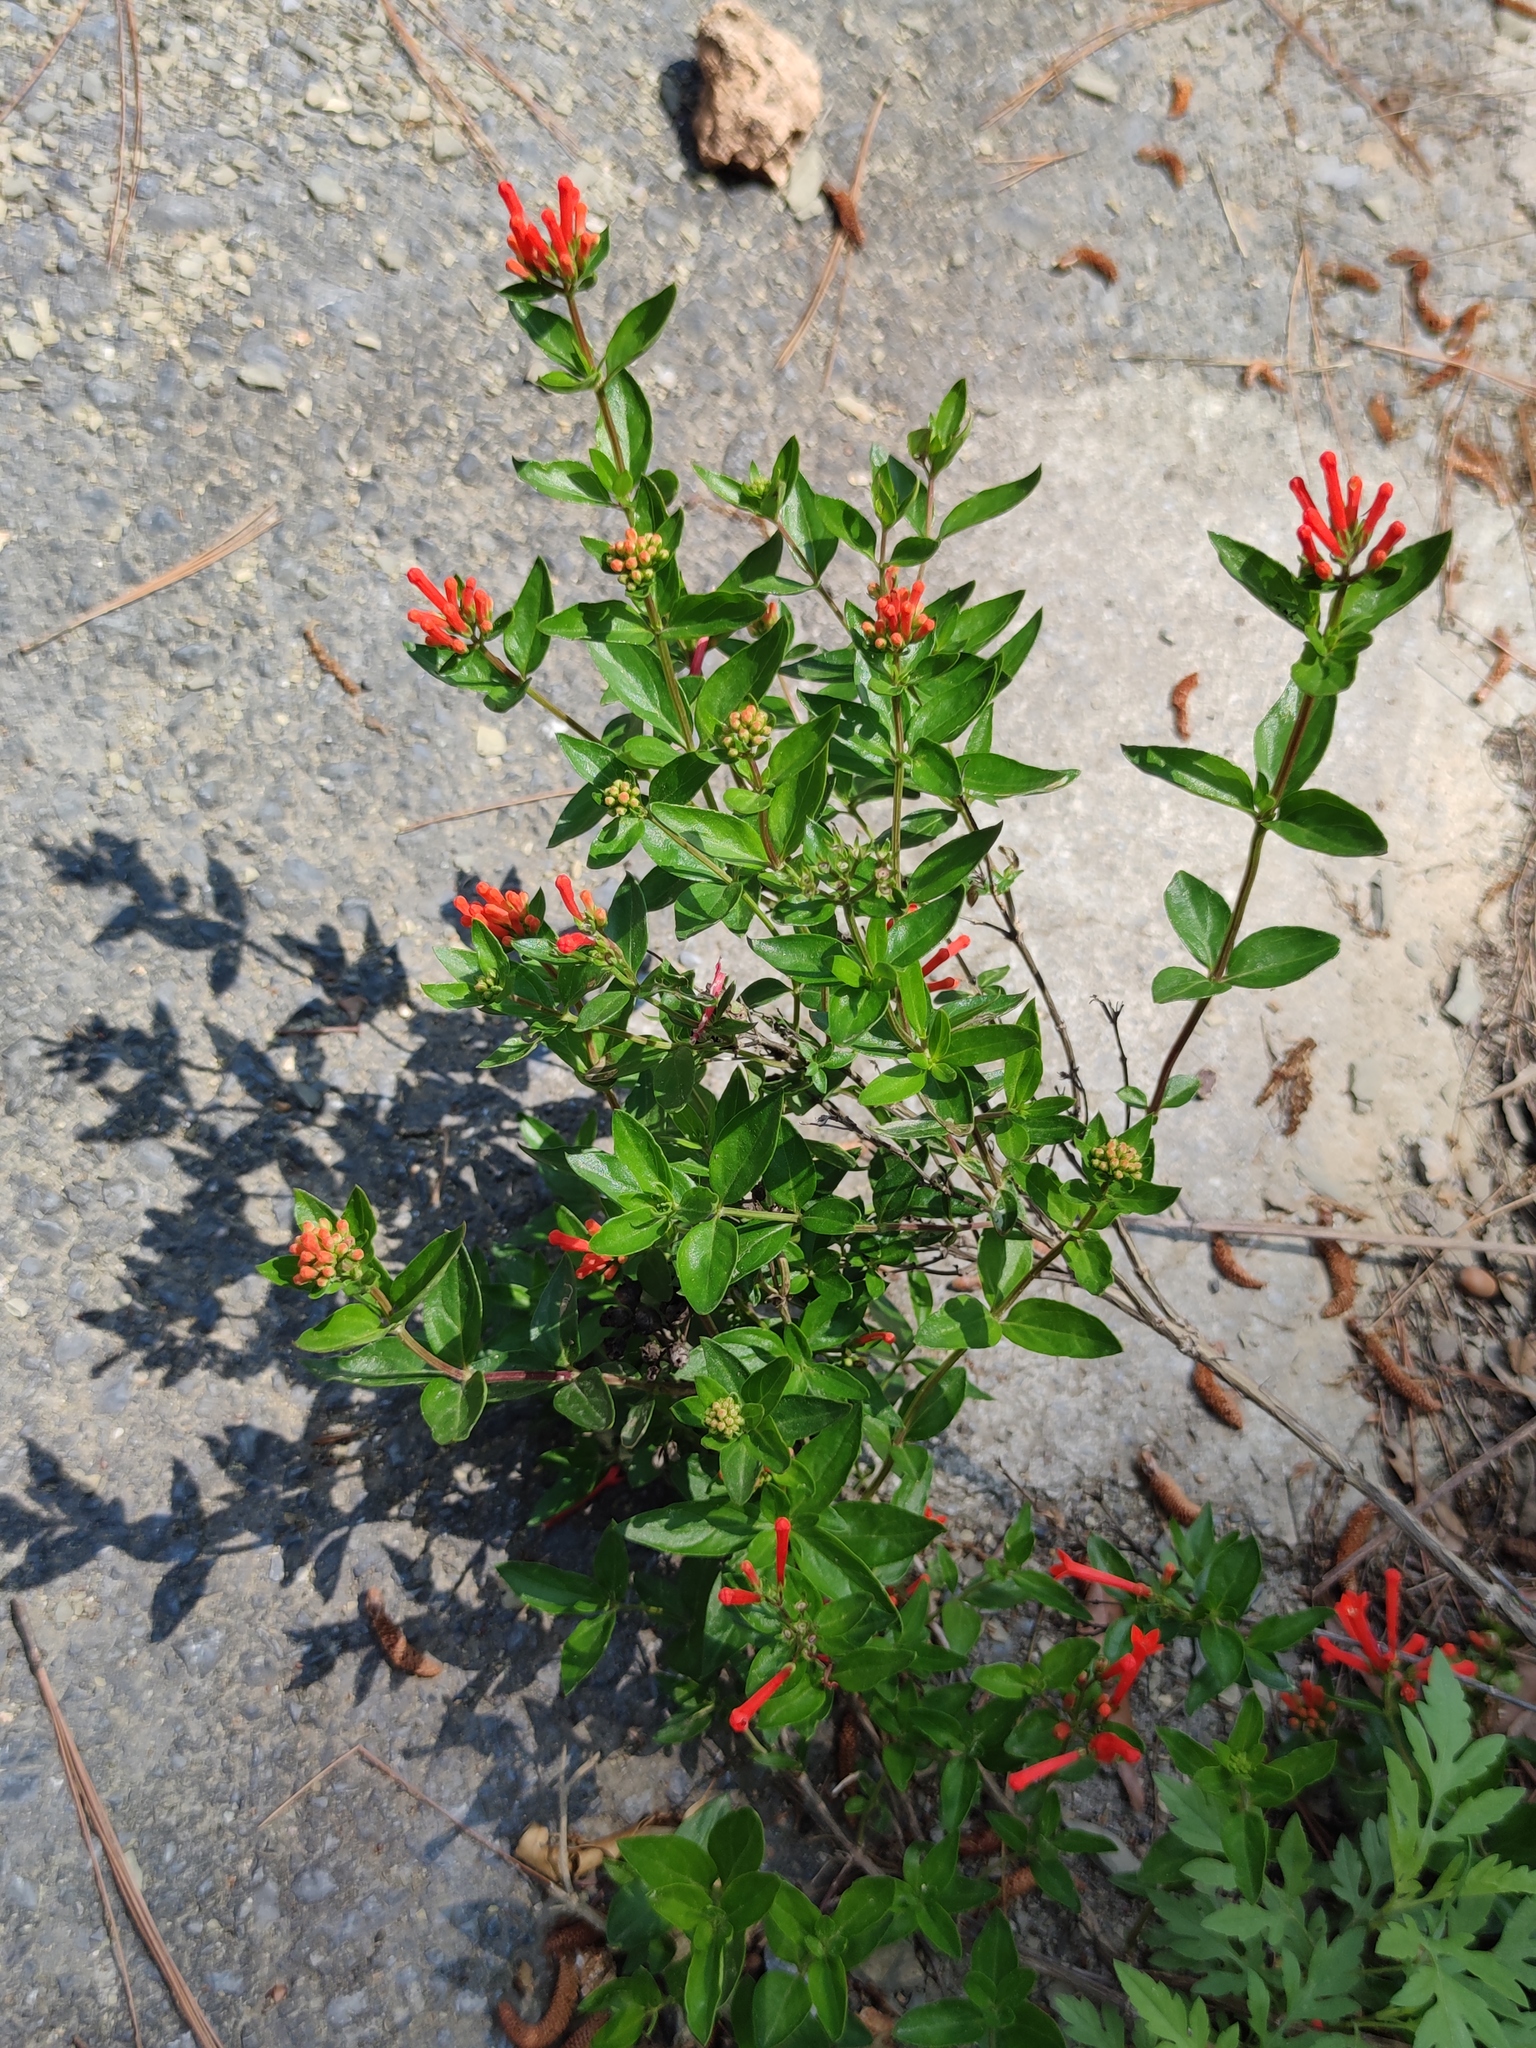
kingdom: Plantae
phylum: Tracheophyta
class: Magnoliopsida
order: Gentianales
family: Rubiaceae
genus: Bouvardia
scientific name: Bouvardia ternifolia
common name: Scarlet bouvardia
